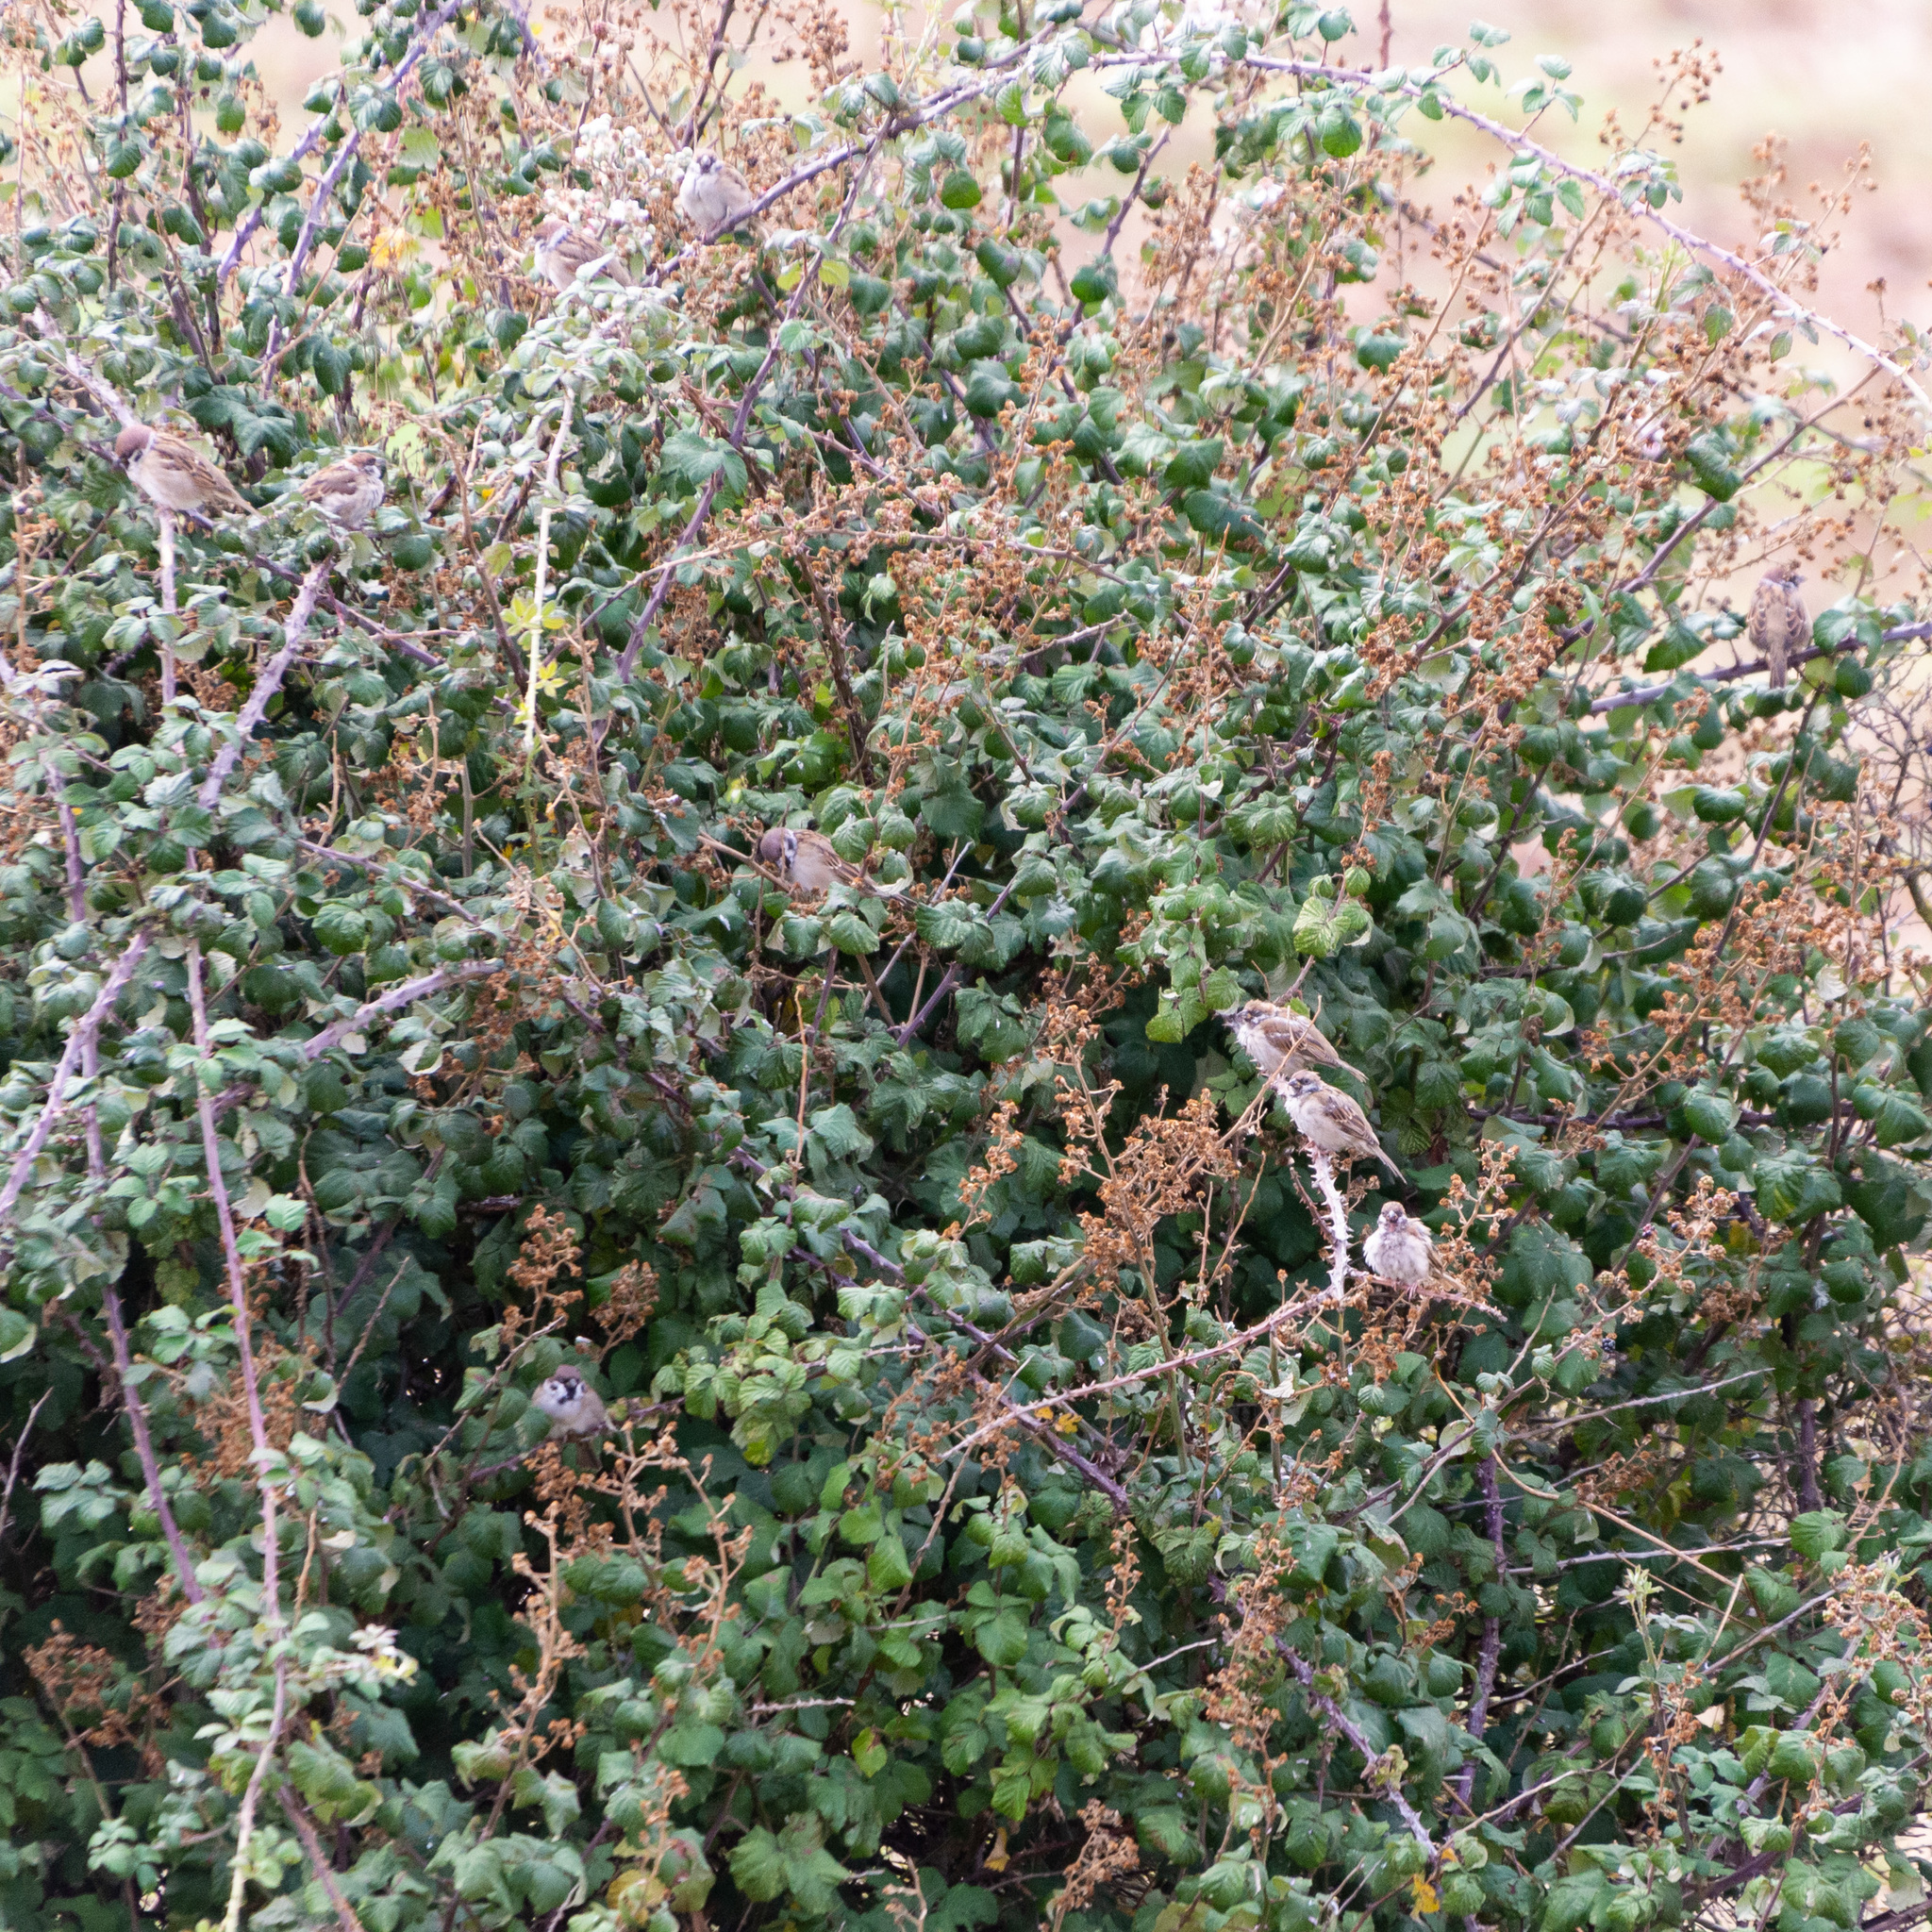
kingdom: Animalia
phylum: Chordata
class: Aves
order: Passeriformes
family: Passeridae
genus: Passer
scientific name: Passer montanus
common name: Eurasian tree sparrow
